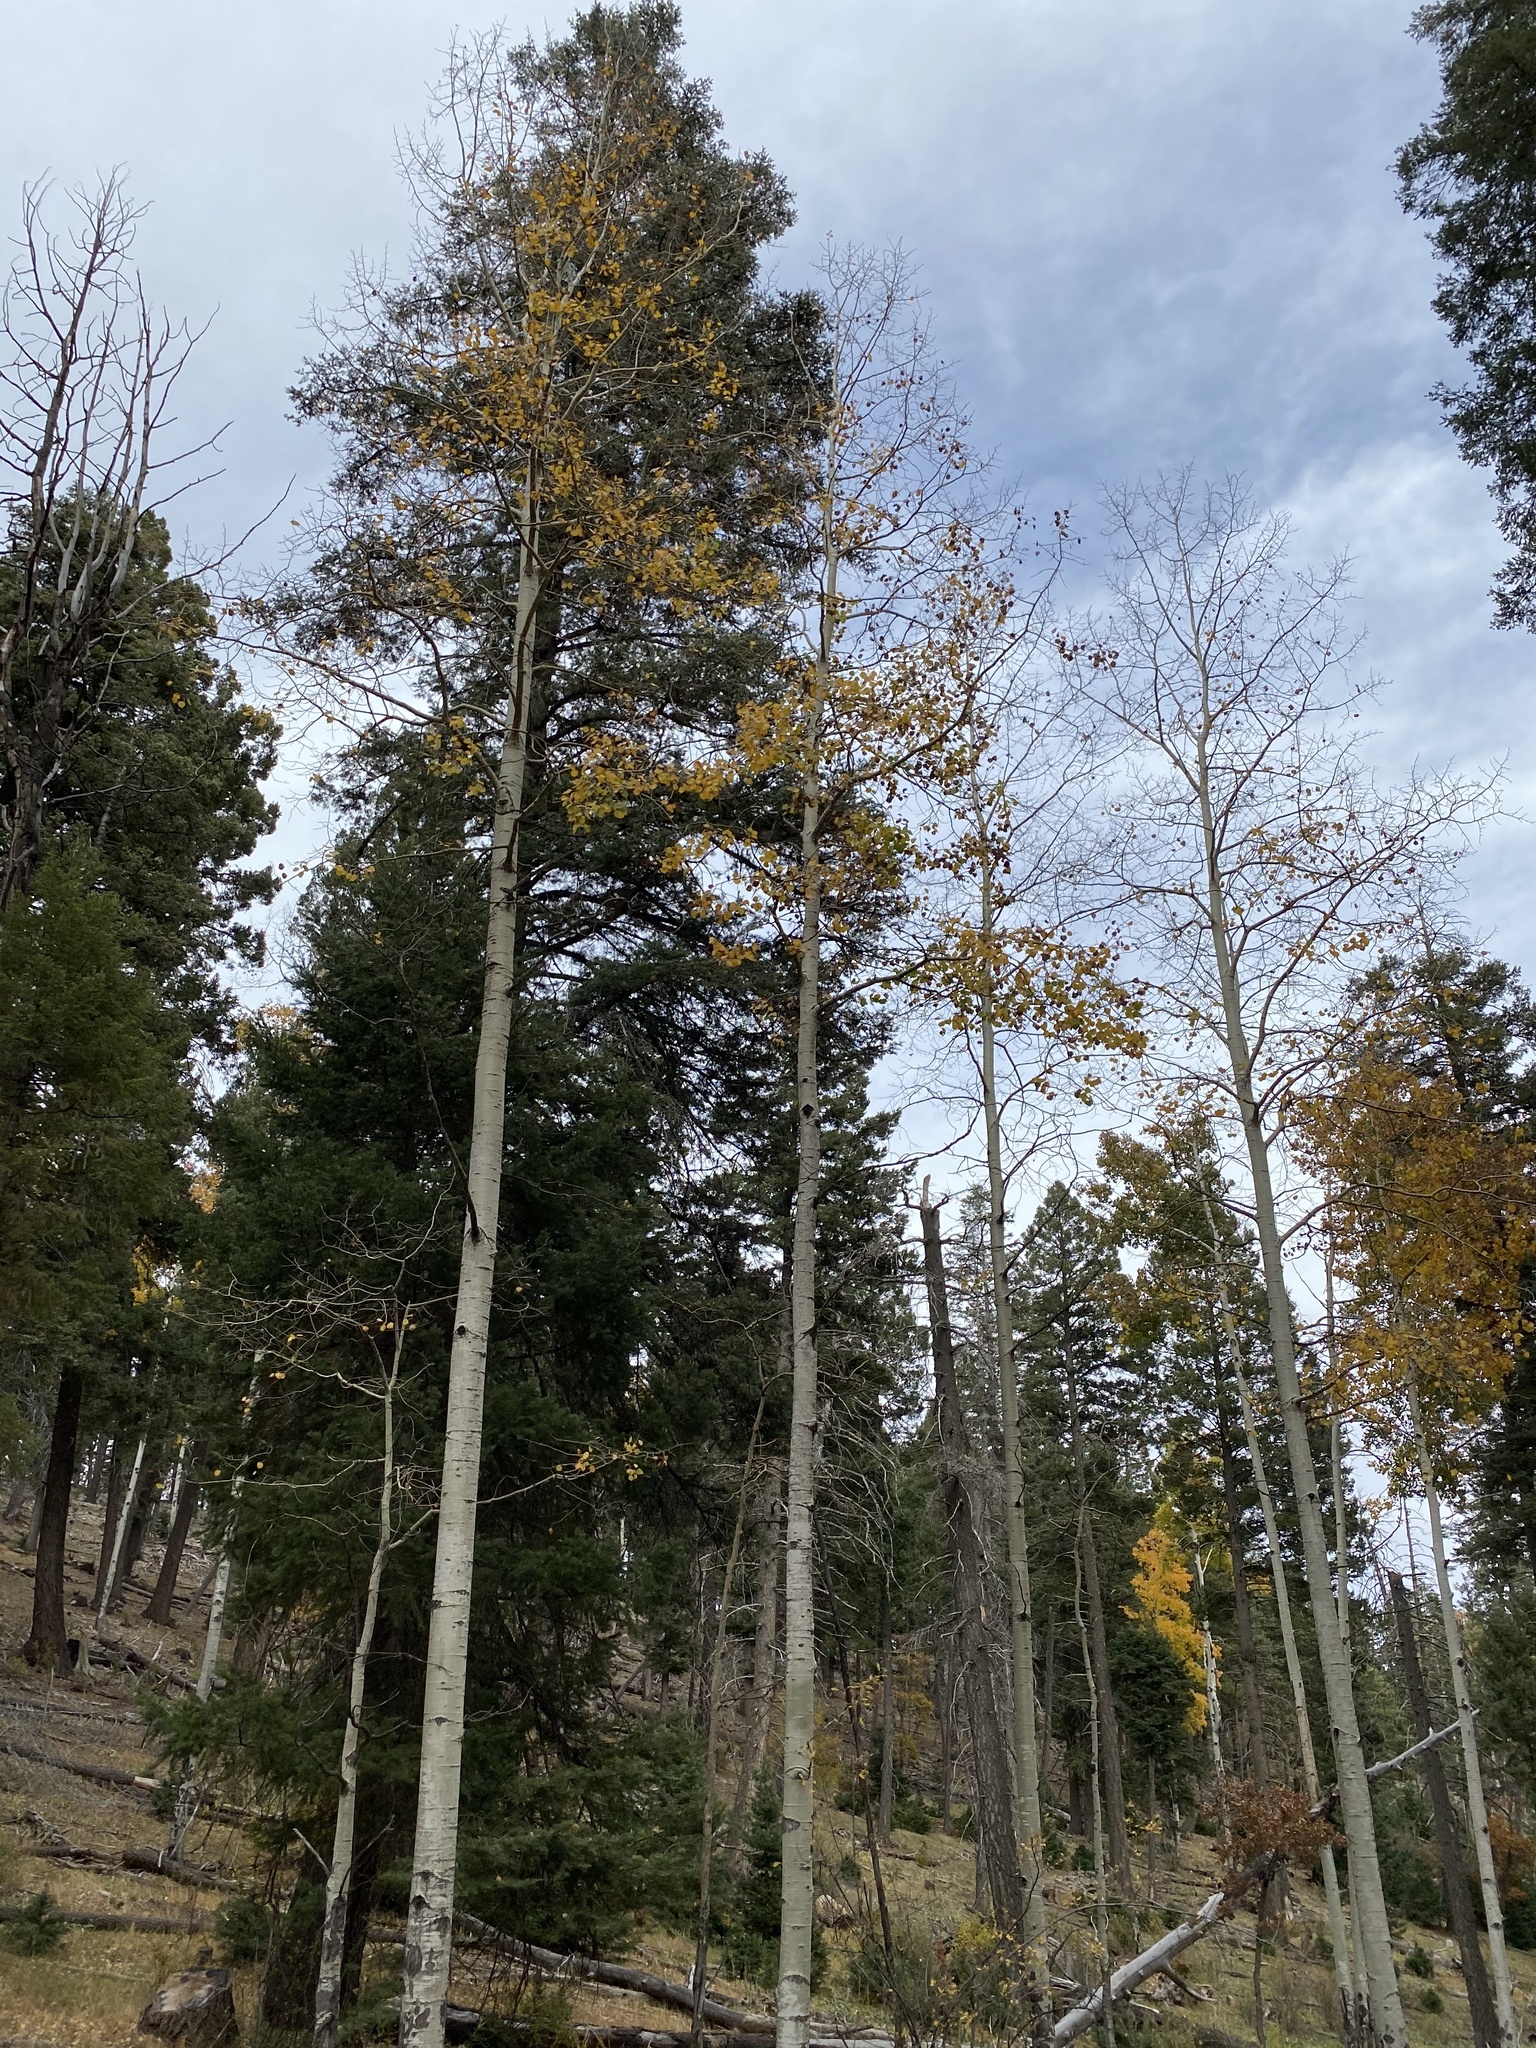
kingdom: Plantae
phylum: Tracheophyta
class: Magnoliopsida
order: Malpighiales
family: Salicaceae
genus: Populus
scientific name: Populus tremuloides
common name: Quaking aspen
